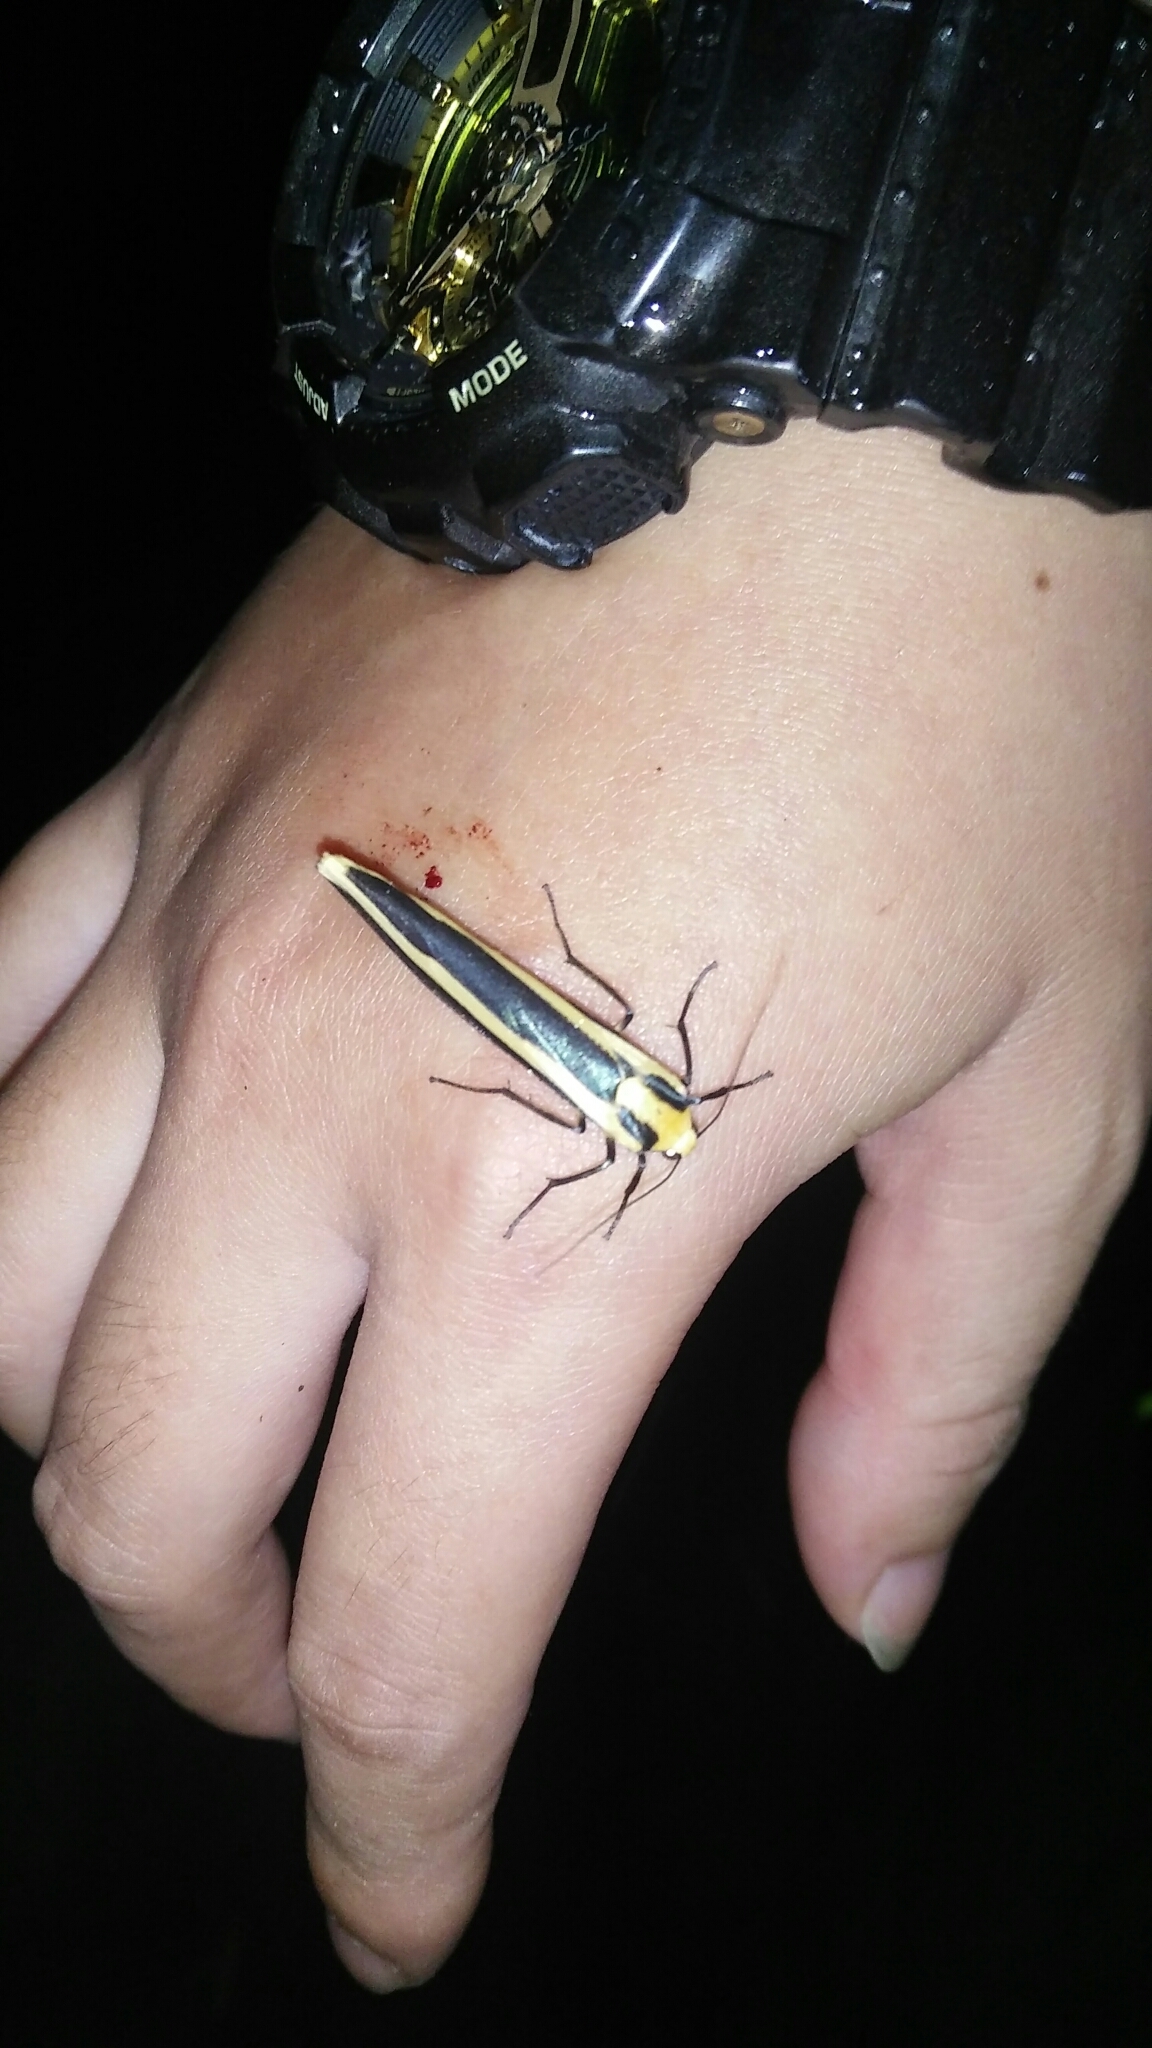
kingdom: Animalia
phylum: Arthropoda
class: Insecta
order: Lepidoptera
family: Erebidae
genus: Chrysorabdia
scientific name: Chrysorabdia vilemani
